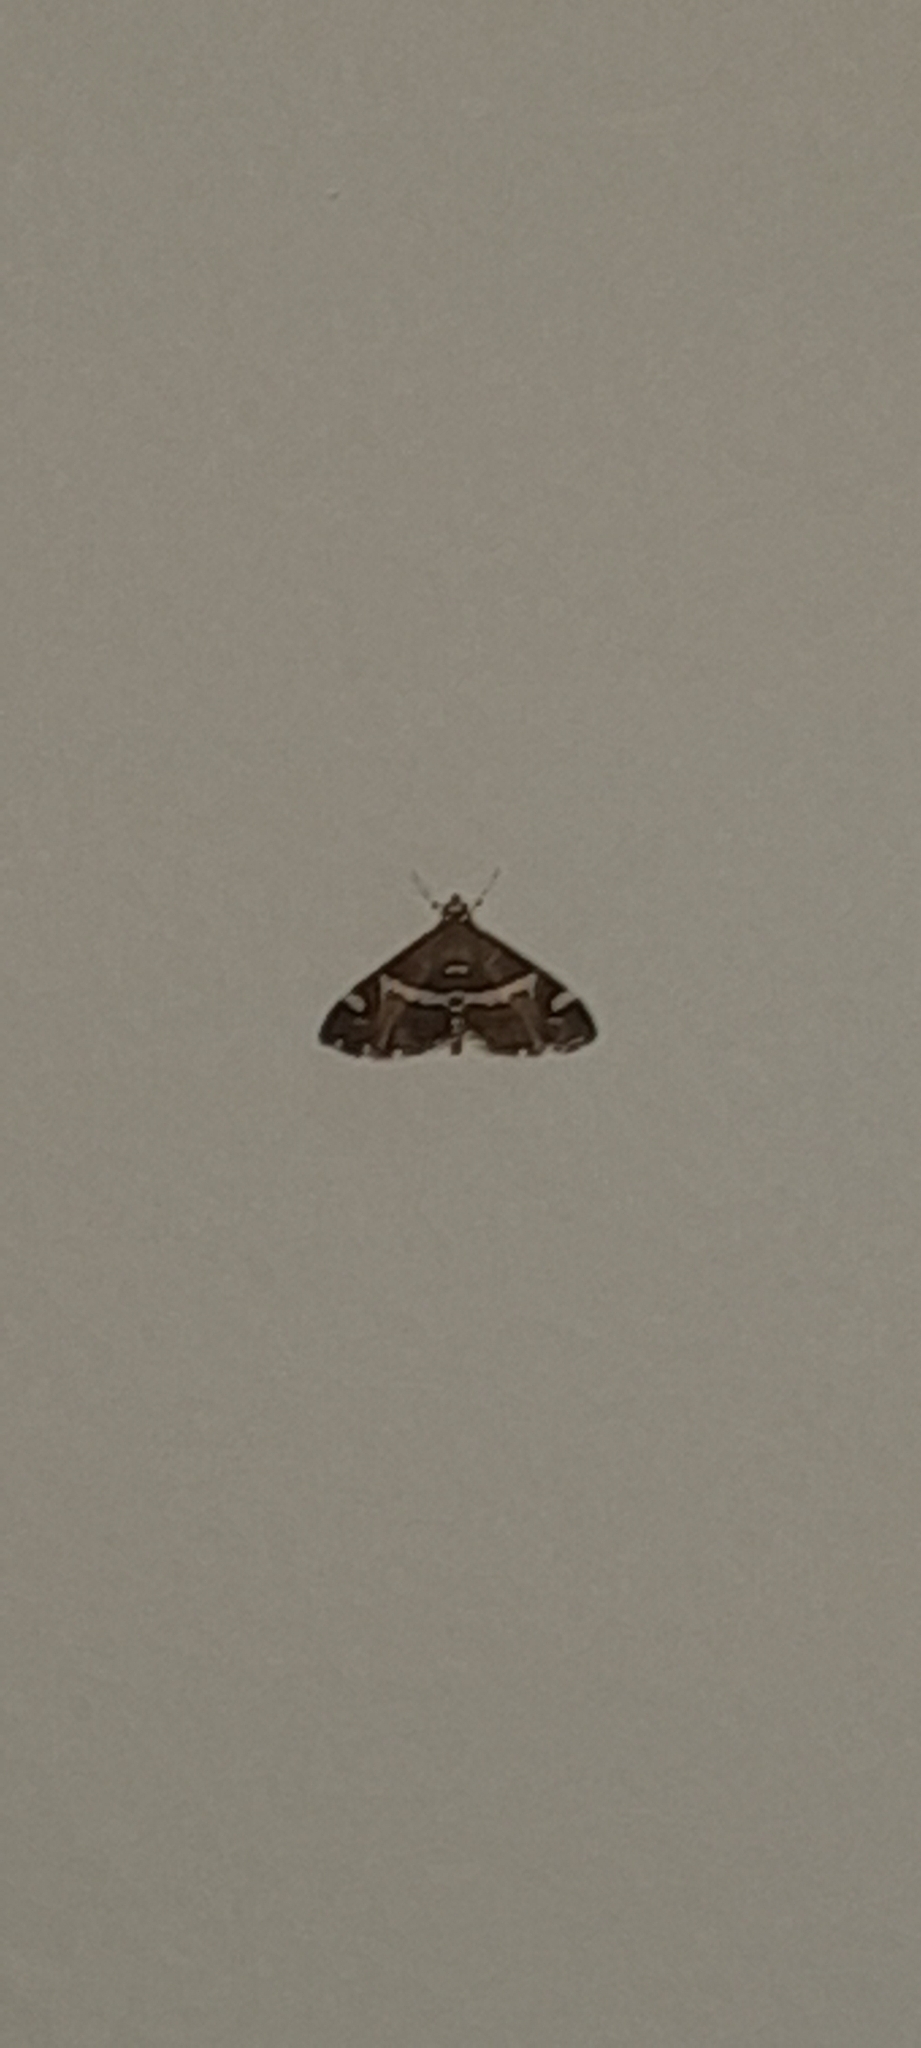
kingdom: Animalia
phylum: Arthropoda
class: Insecta
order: Lepidoptera
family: Crambidae
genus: Spoladea
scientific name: Spoladea recurvalis
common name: Beet webworm moth
